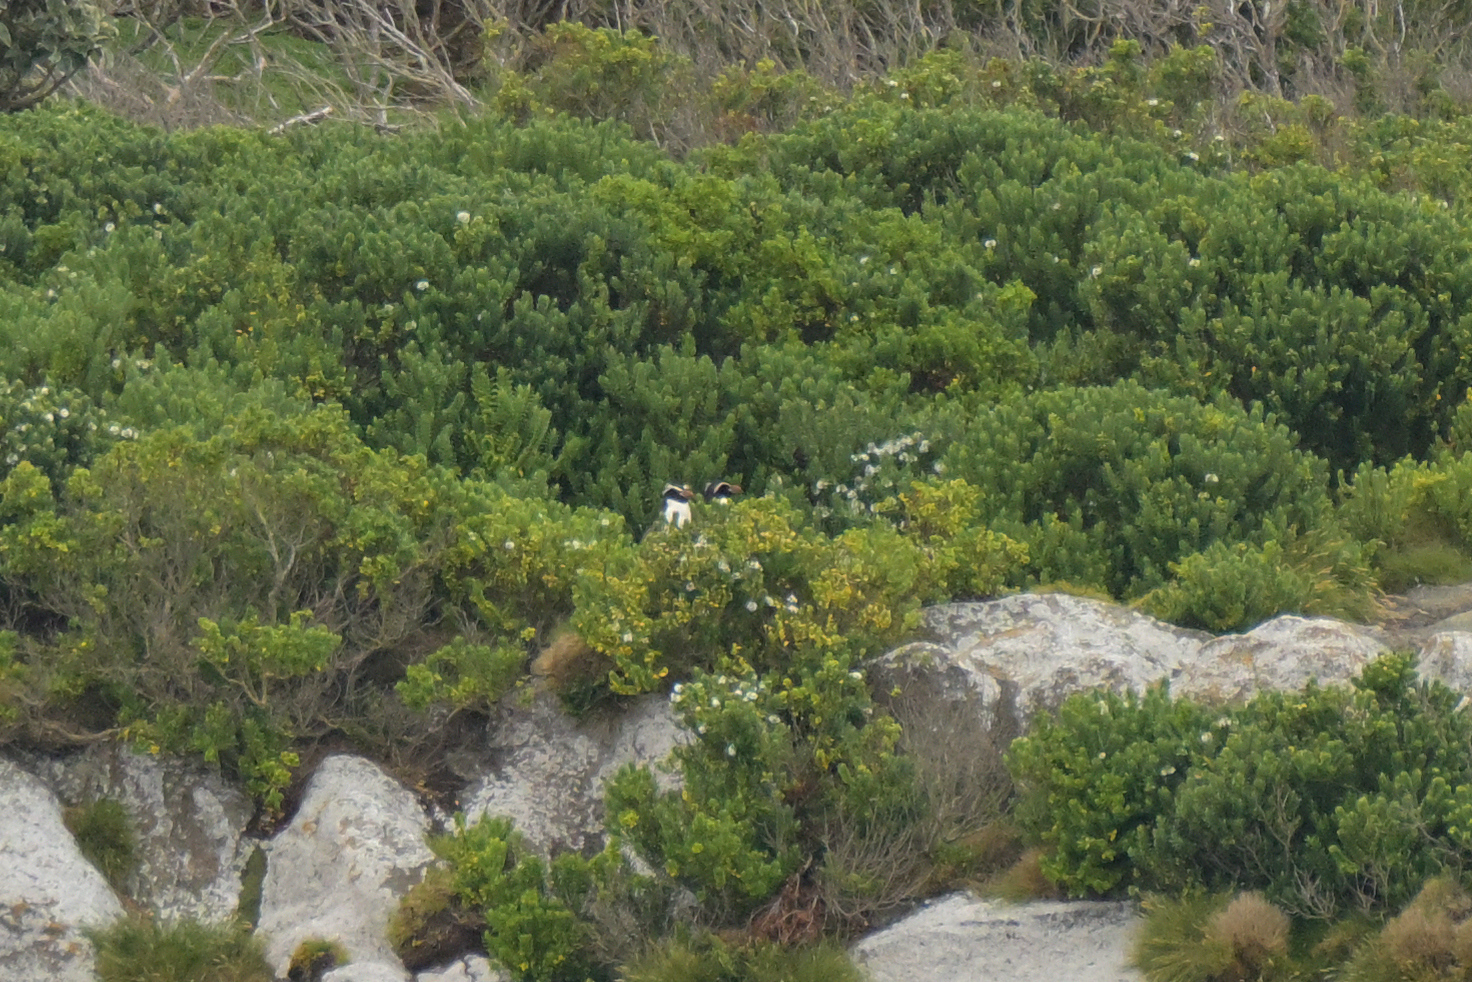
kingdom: Animalia
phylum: Chordata
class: Aves
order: Sphenisciformes
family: Spheniscidae
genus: Eudyptes
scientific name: Eudyptes robustus
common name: Snares penguin
